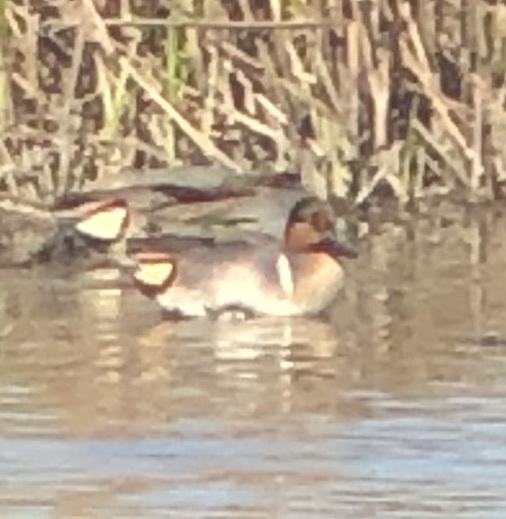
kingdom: Animalia
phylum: Chordata
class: Aves
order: Anseriformes
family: Anatidae
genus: Anas
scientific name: Anas crecca
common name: Eurasian teal
